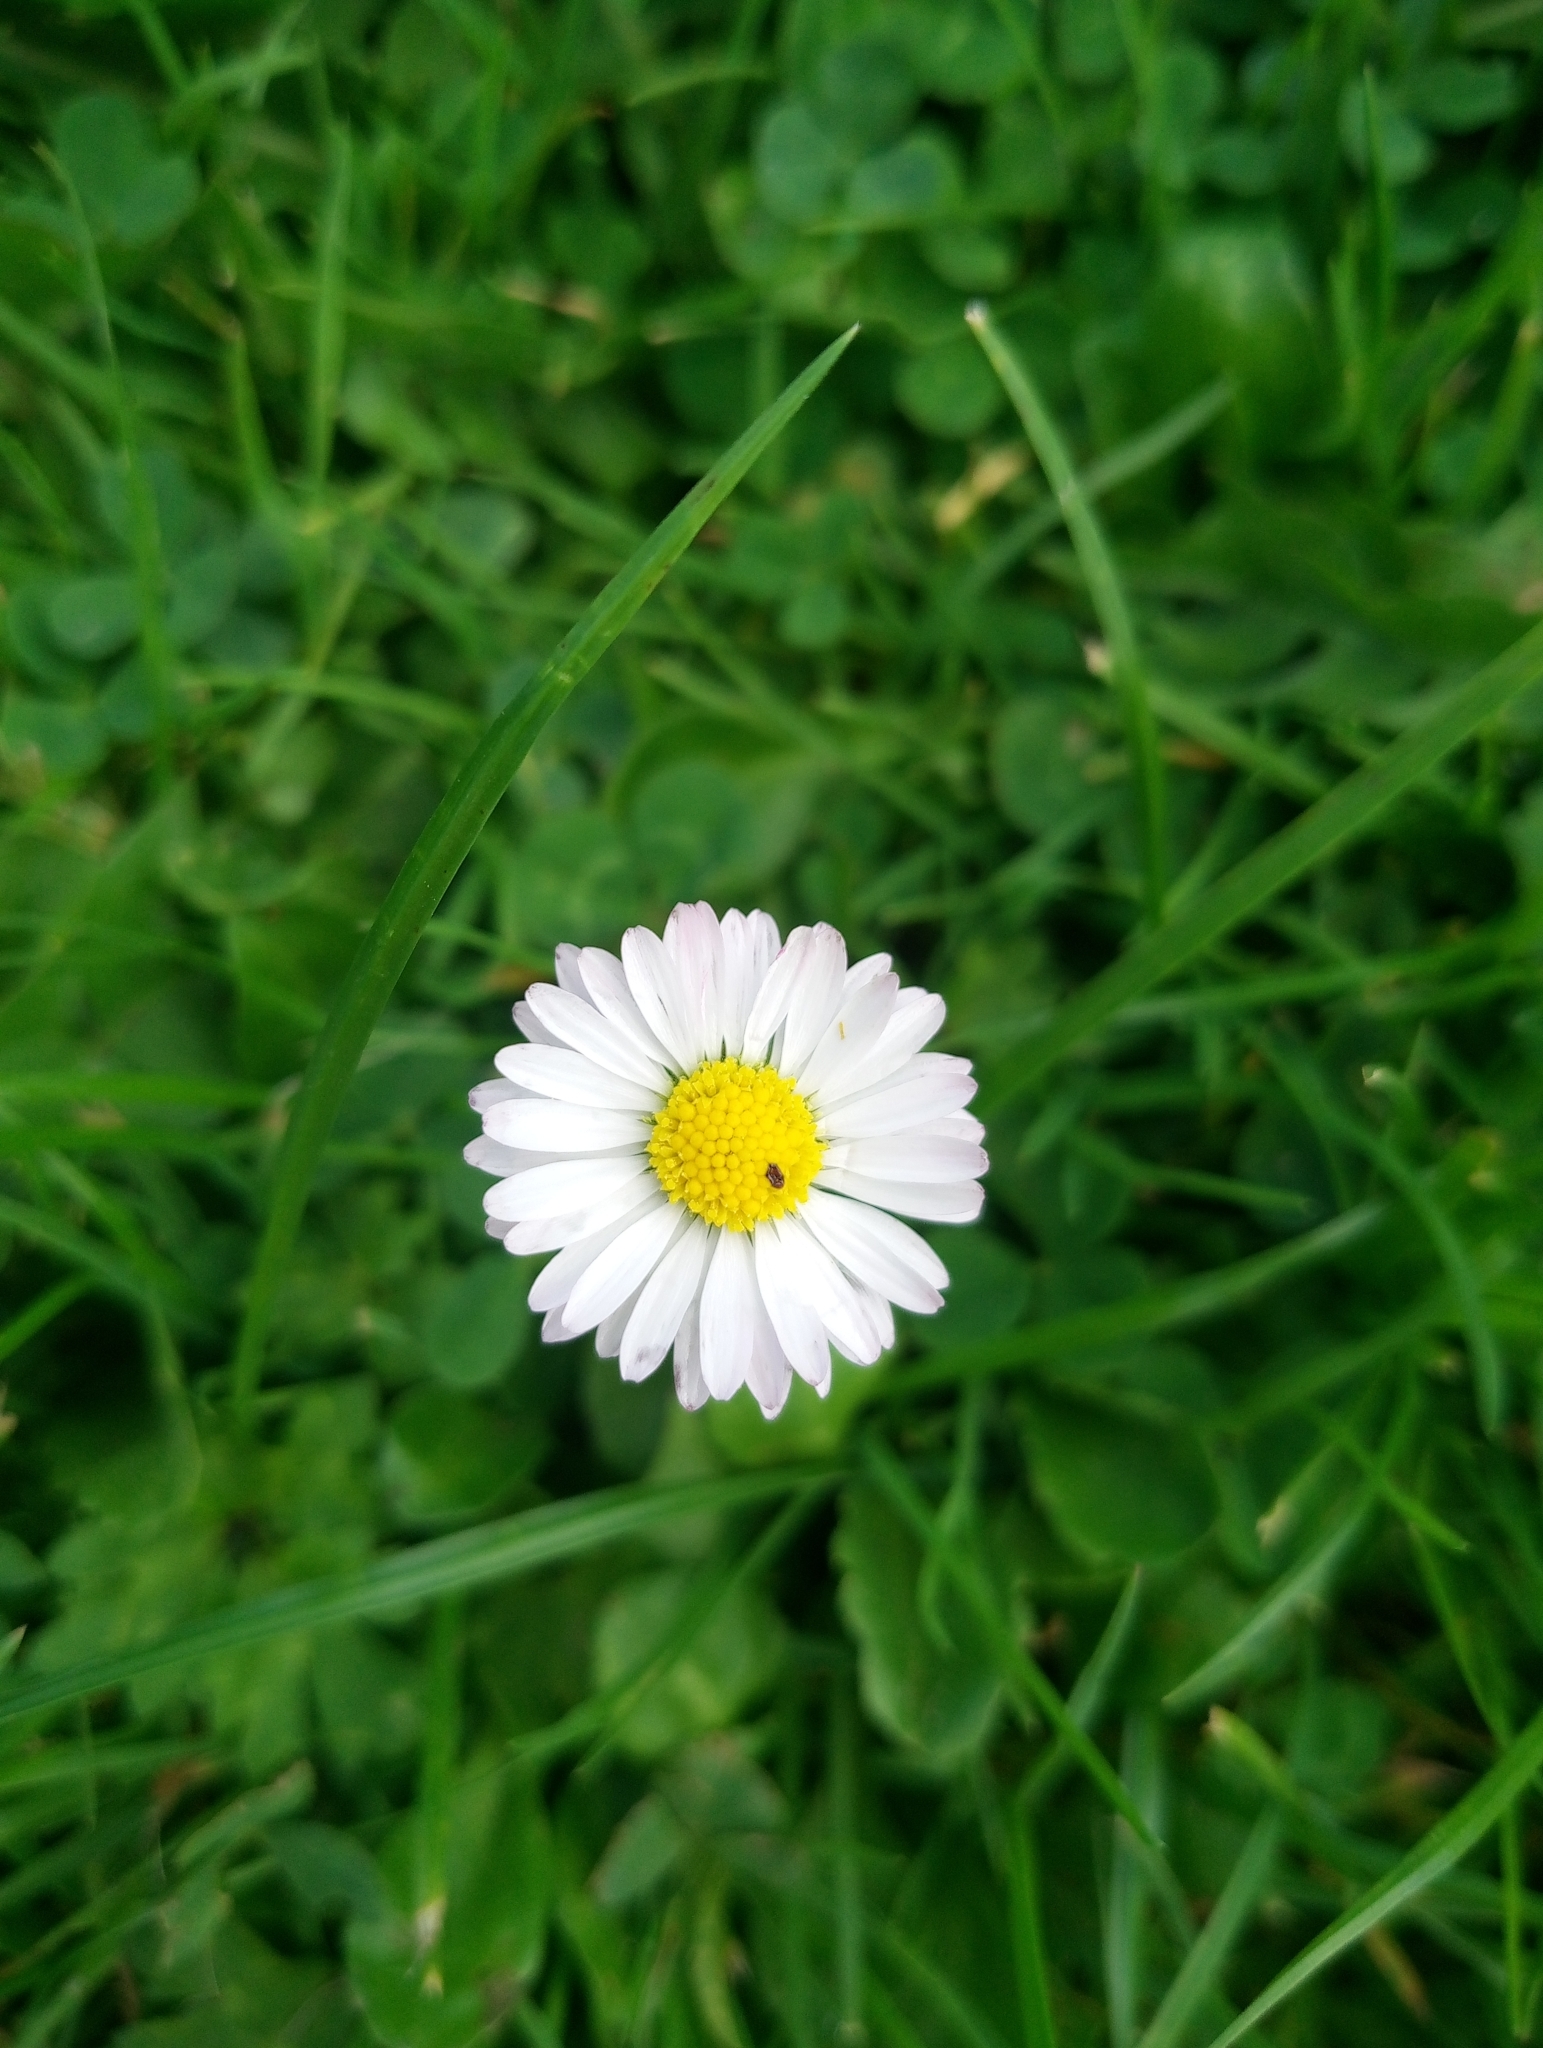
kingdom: Plantae
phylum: Tracheophyta
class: Magnoliopsida
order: Asterales
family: Asteraceae
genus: Bellis
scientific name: Bellis perennis
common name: Lawndaisy
